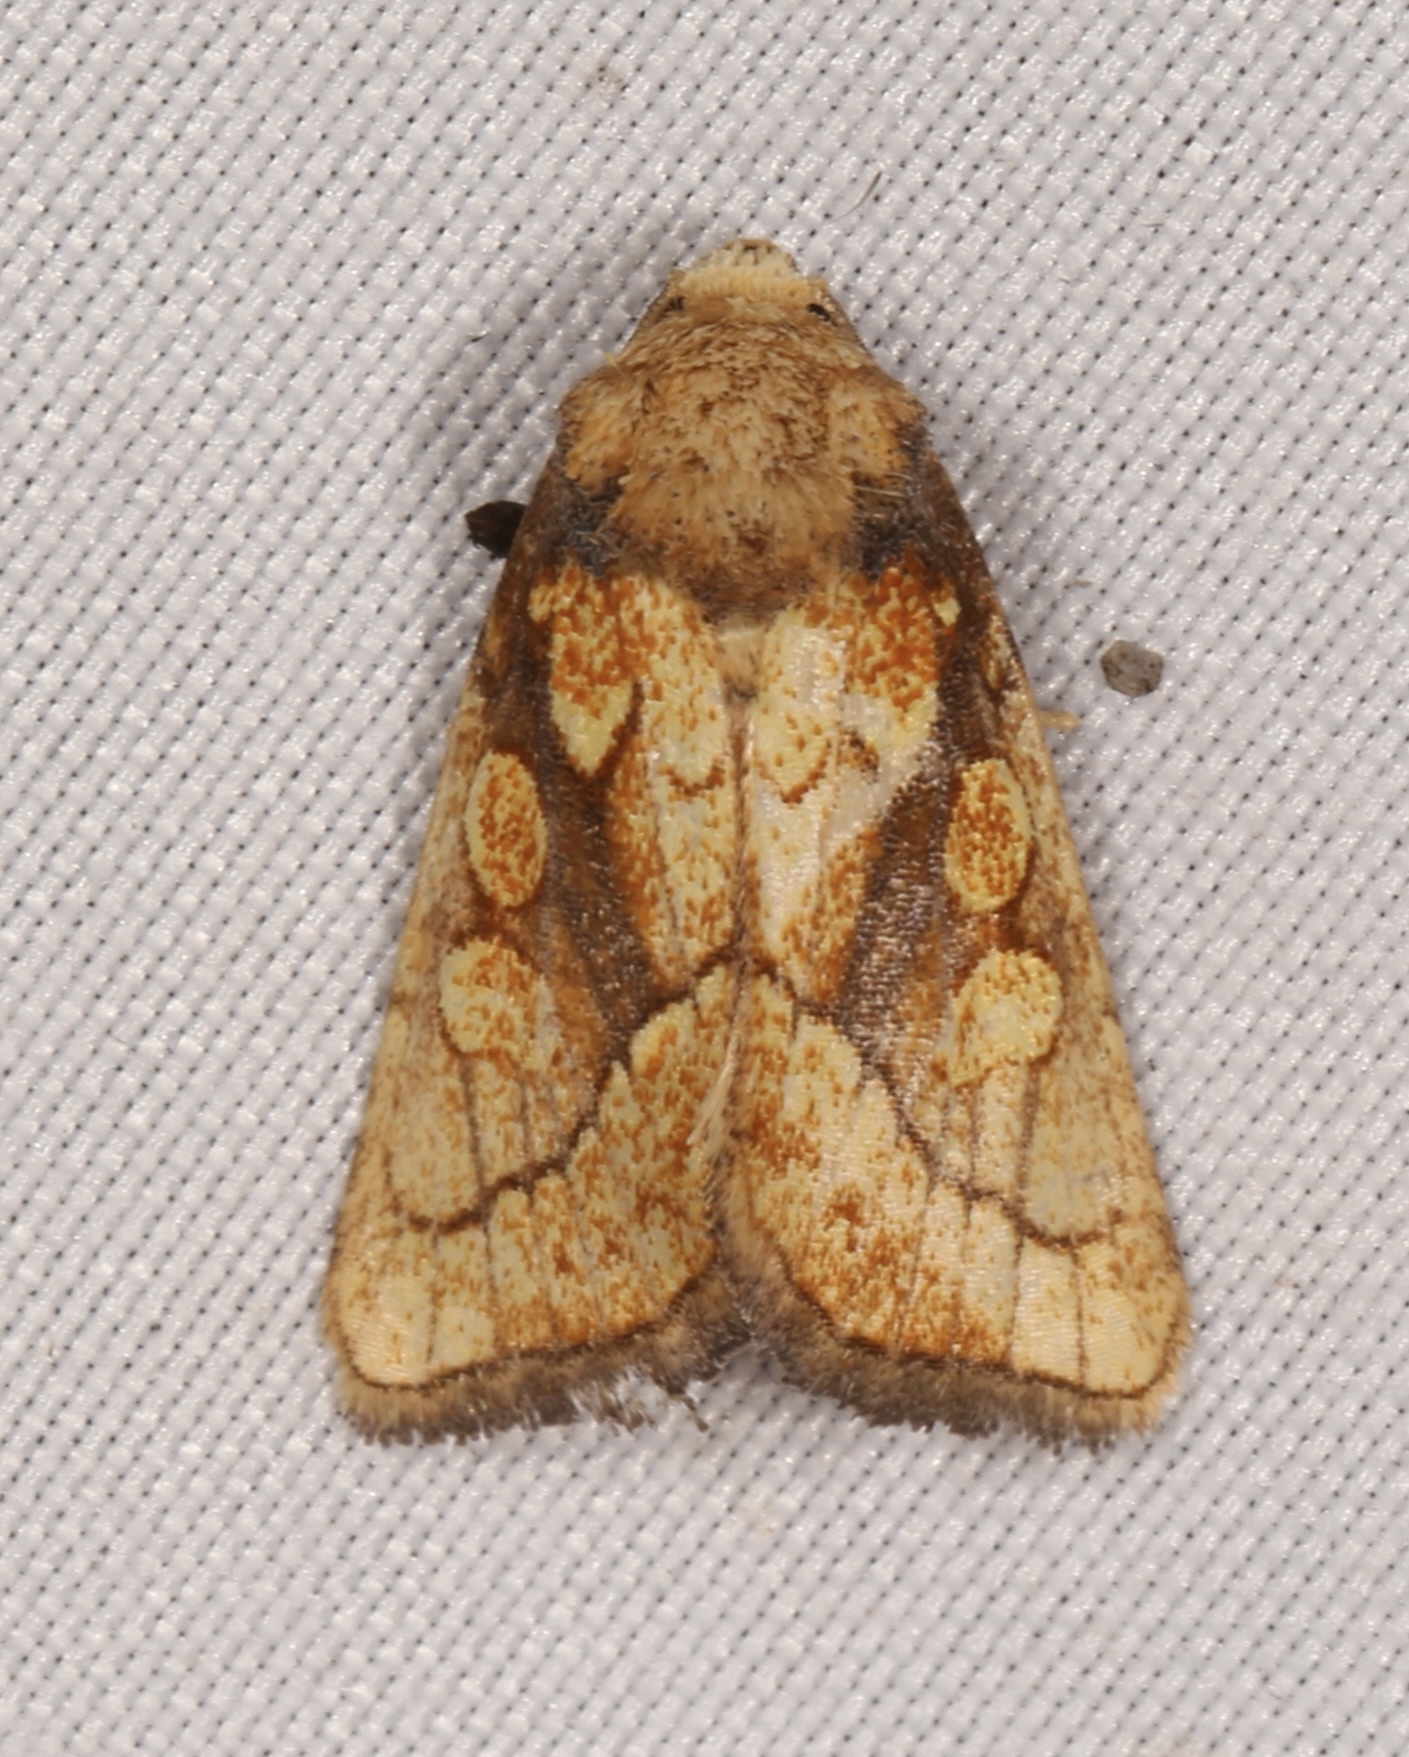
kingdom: Animalia
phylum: Arthropoda
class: Insecta
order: Lepidoptera
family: Noctuidae
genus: Nocloa
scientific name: Nocloa alcandra
